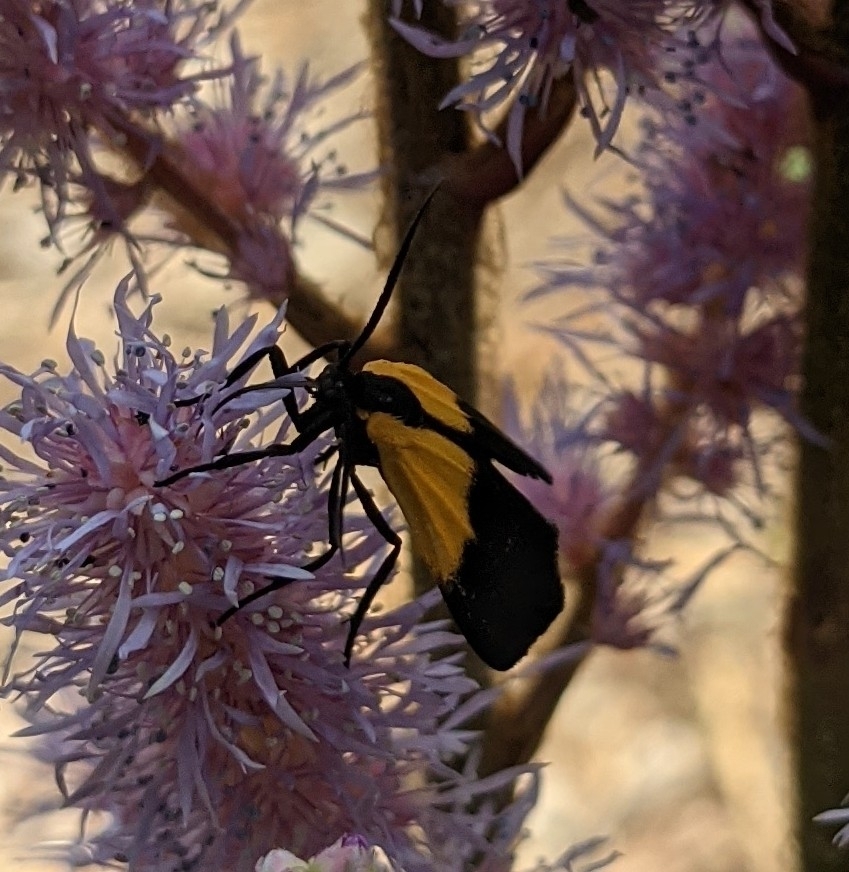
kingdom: Animalia
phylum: Arthropoda
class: Insecta
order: Lepidoptera
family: Erebidae
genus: Lycomorpha
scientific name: Lycomorpha pholus
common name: Black-and-yellow lichen moth
